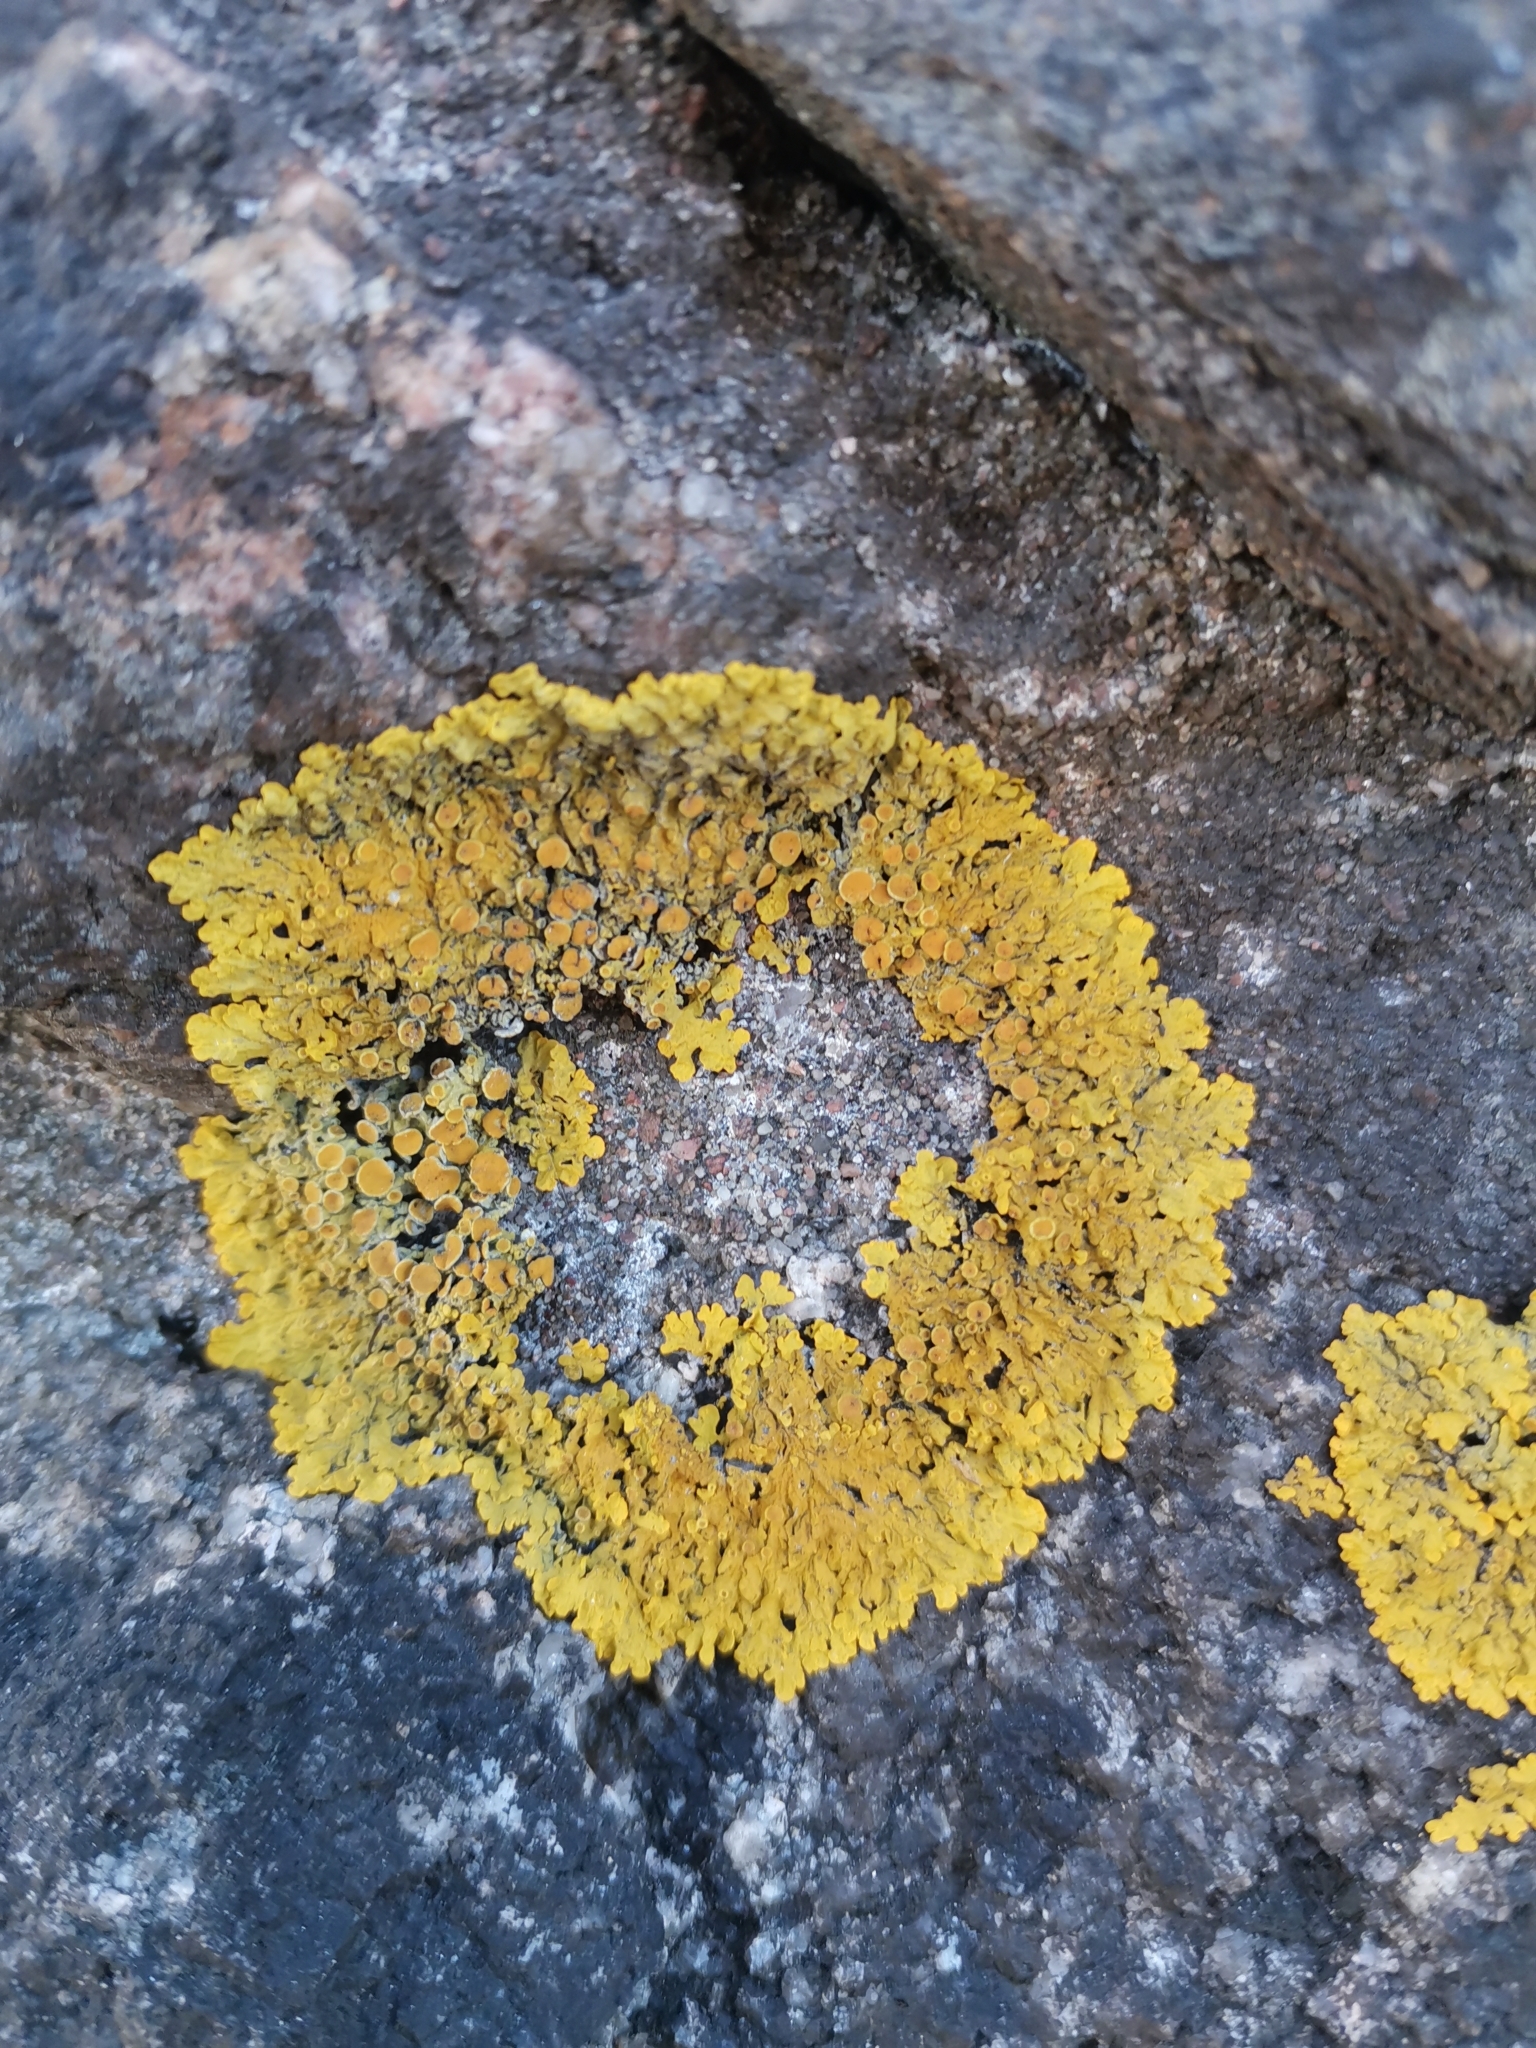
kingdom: Fungi
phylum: Ascomycota
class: Lecanoromycetes
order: Teloschistales
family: Teloschistaceae
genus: Xanthoria
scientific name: Xanthoria parietina
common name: Common orange lichen
